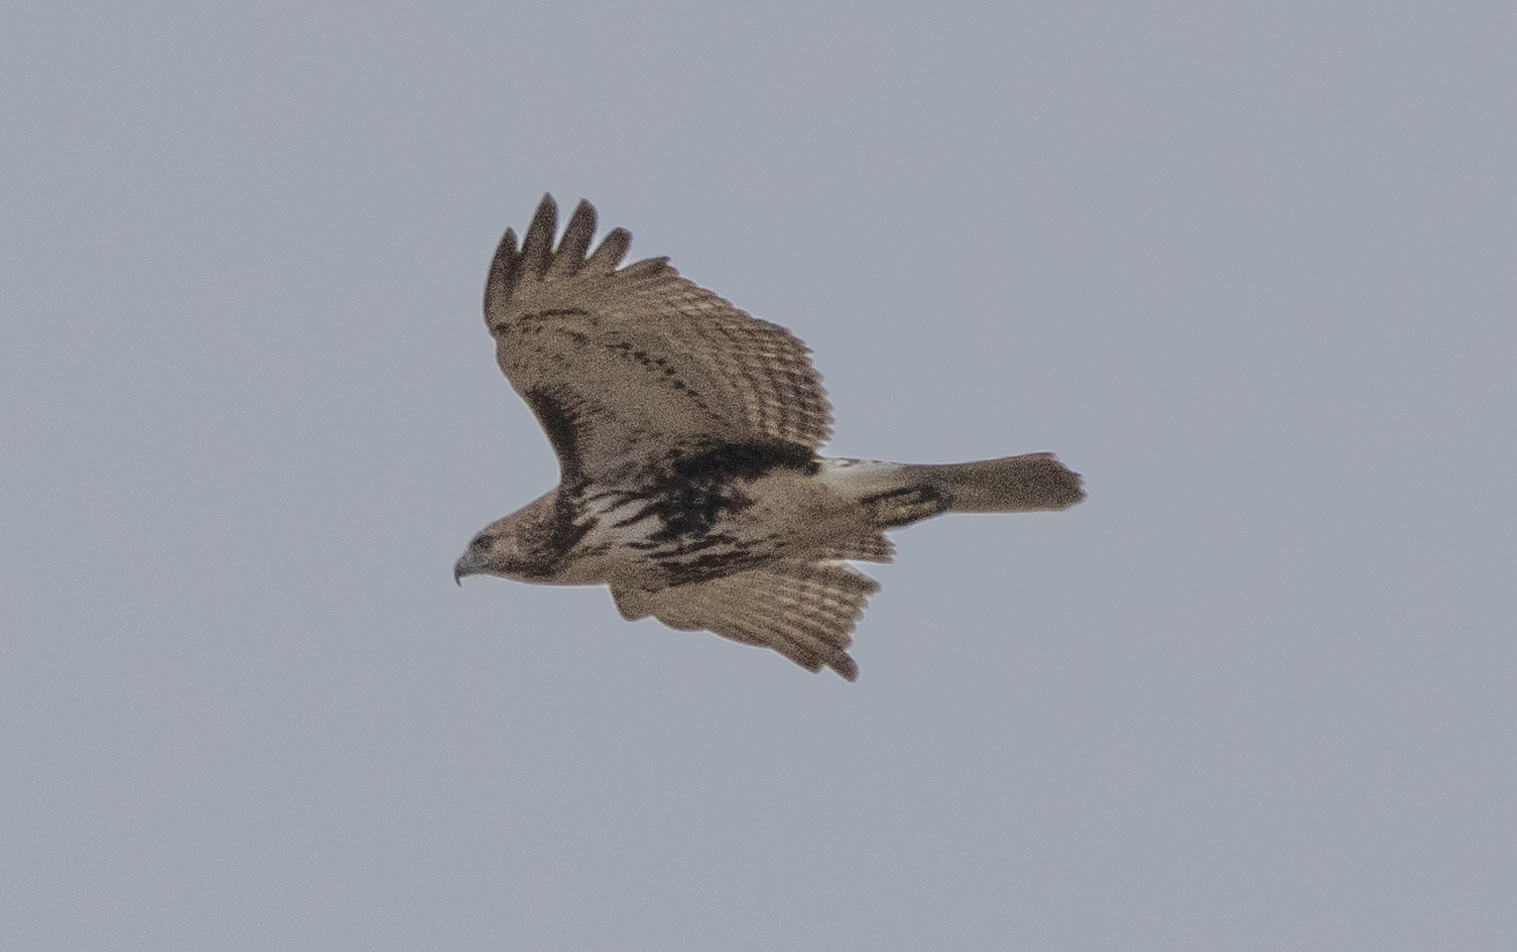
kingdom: Animalia
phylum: Chordata
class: Aves
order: Accipitriformes
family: Accipitridae
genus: Buteo
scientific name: Buteo jamaicensis
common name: Red-tailed hawk
